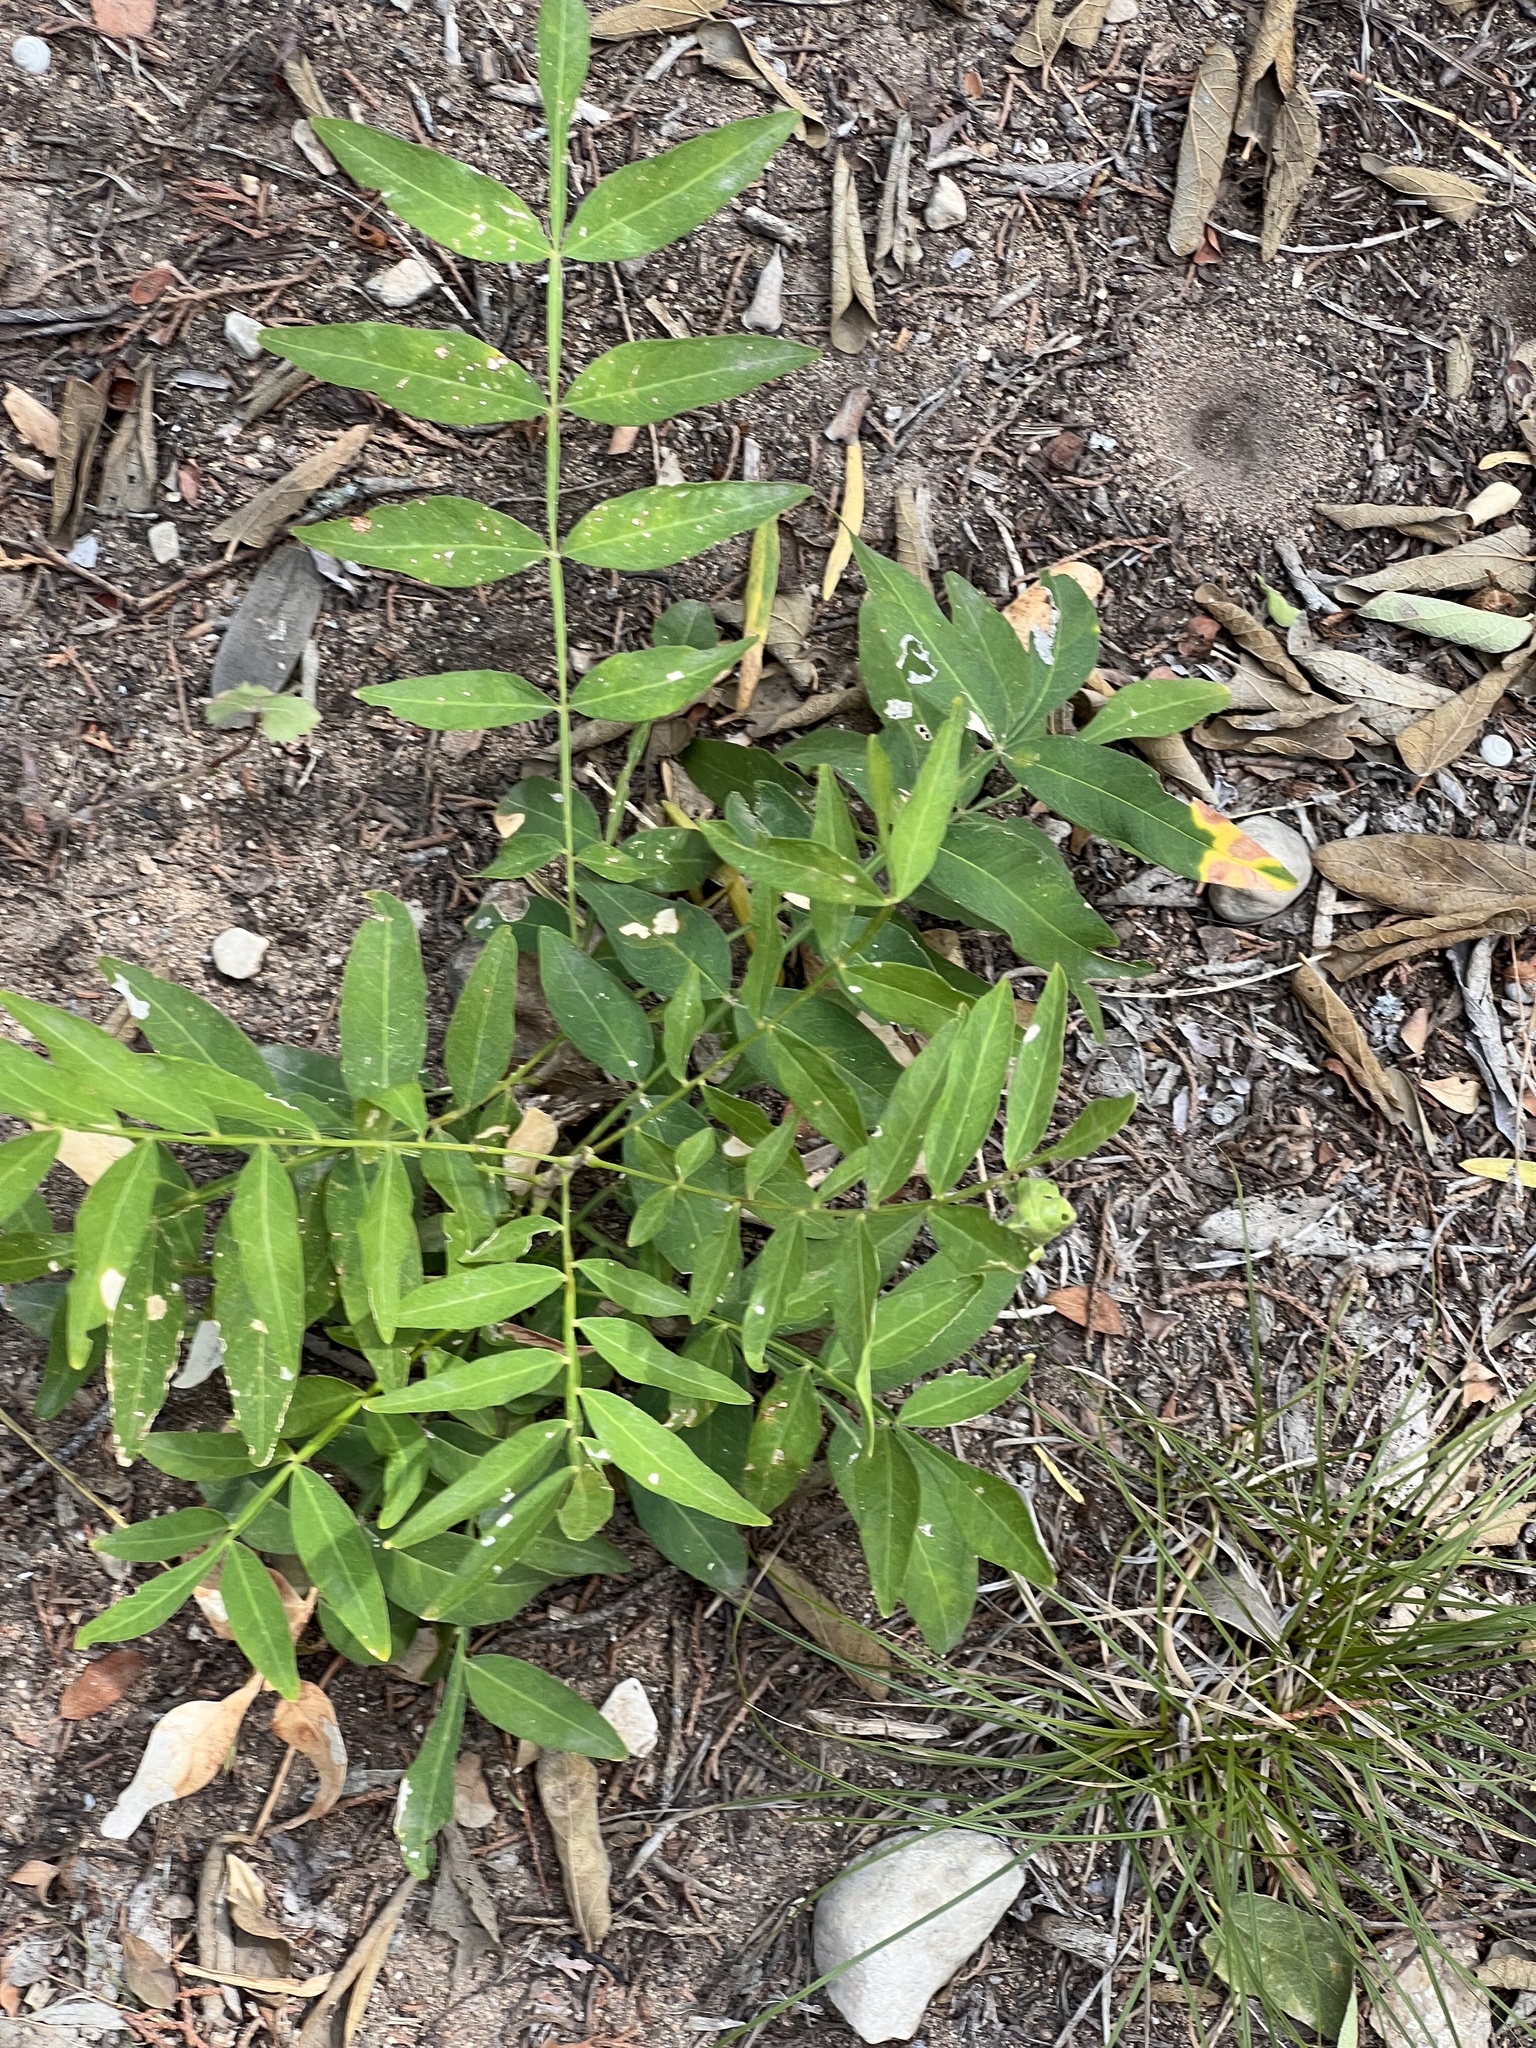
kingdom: Plantae
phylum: Tracheophyta
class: Magnoliopsida
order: Sapindales
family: Anacardiaceae
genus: Rhus
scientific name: Rhus lanceolata
